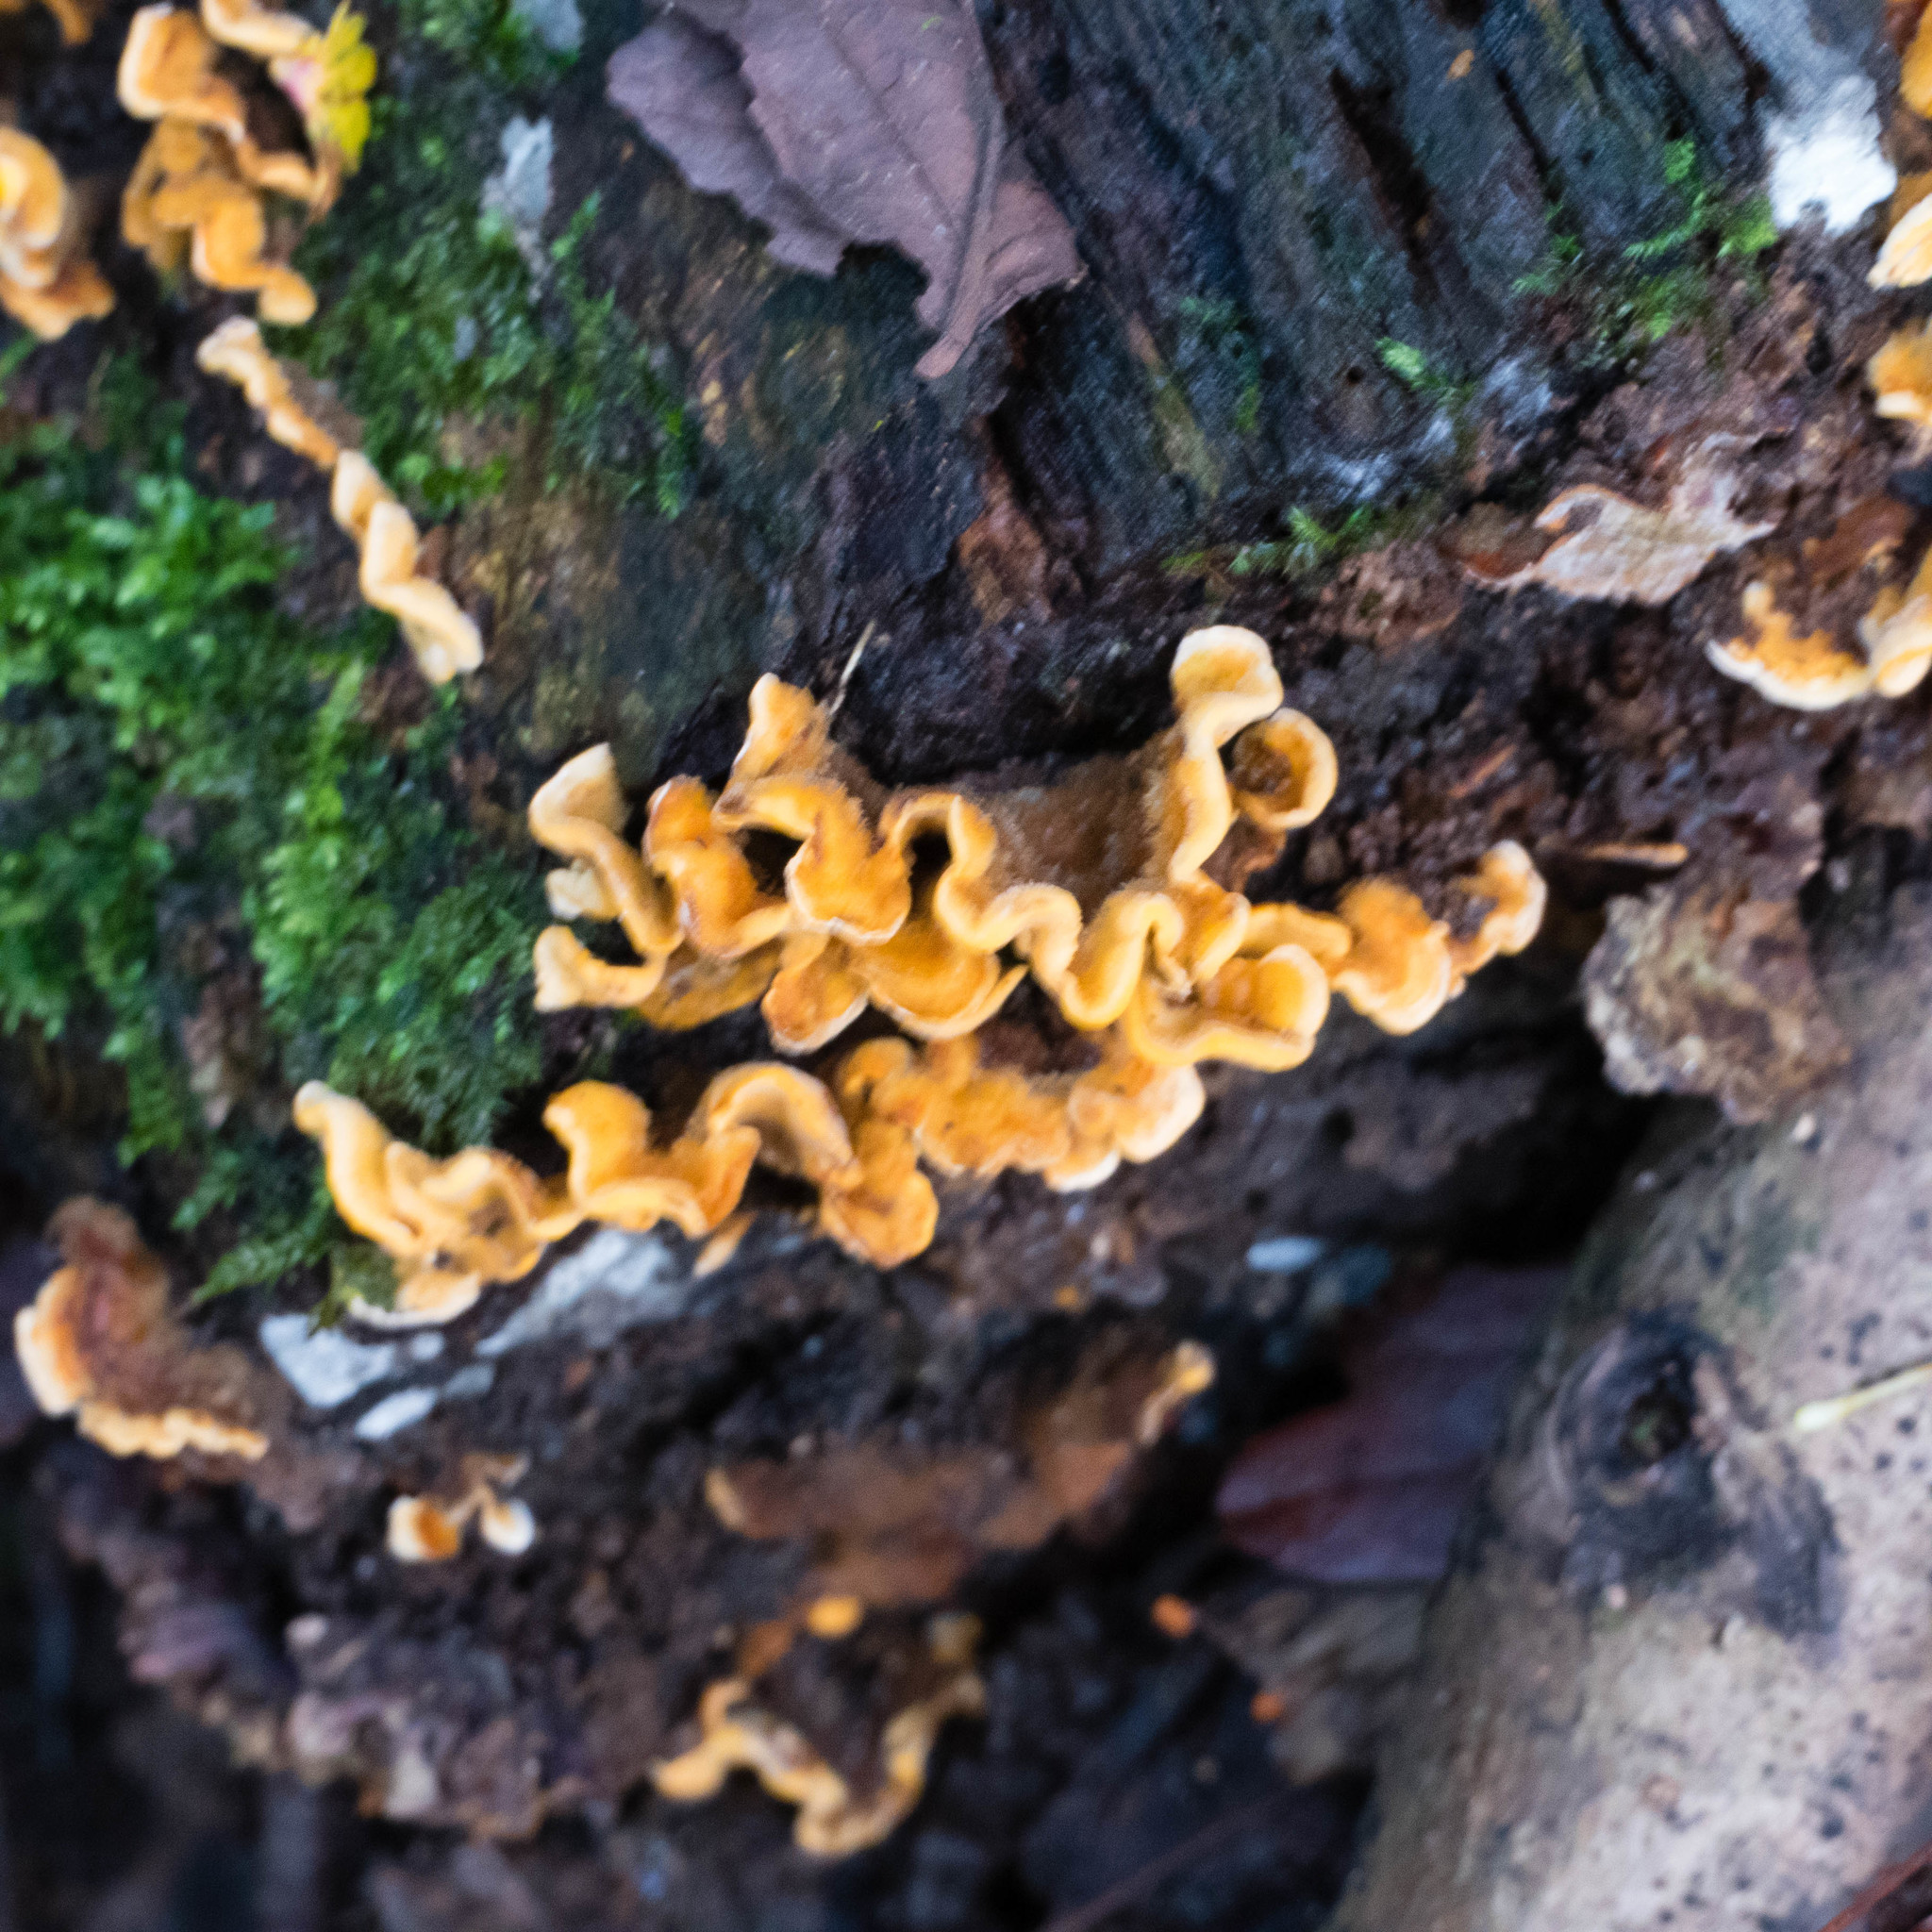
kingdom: Fungi
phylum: Basidiomycota
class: Agaricomycetes
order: Russulales
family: Stereaceae
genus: Stereum
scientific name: Stereum hirsutum
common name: Hairy curtain crust
